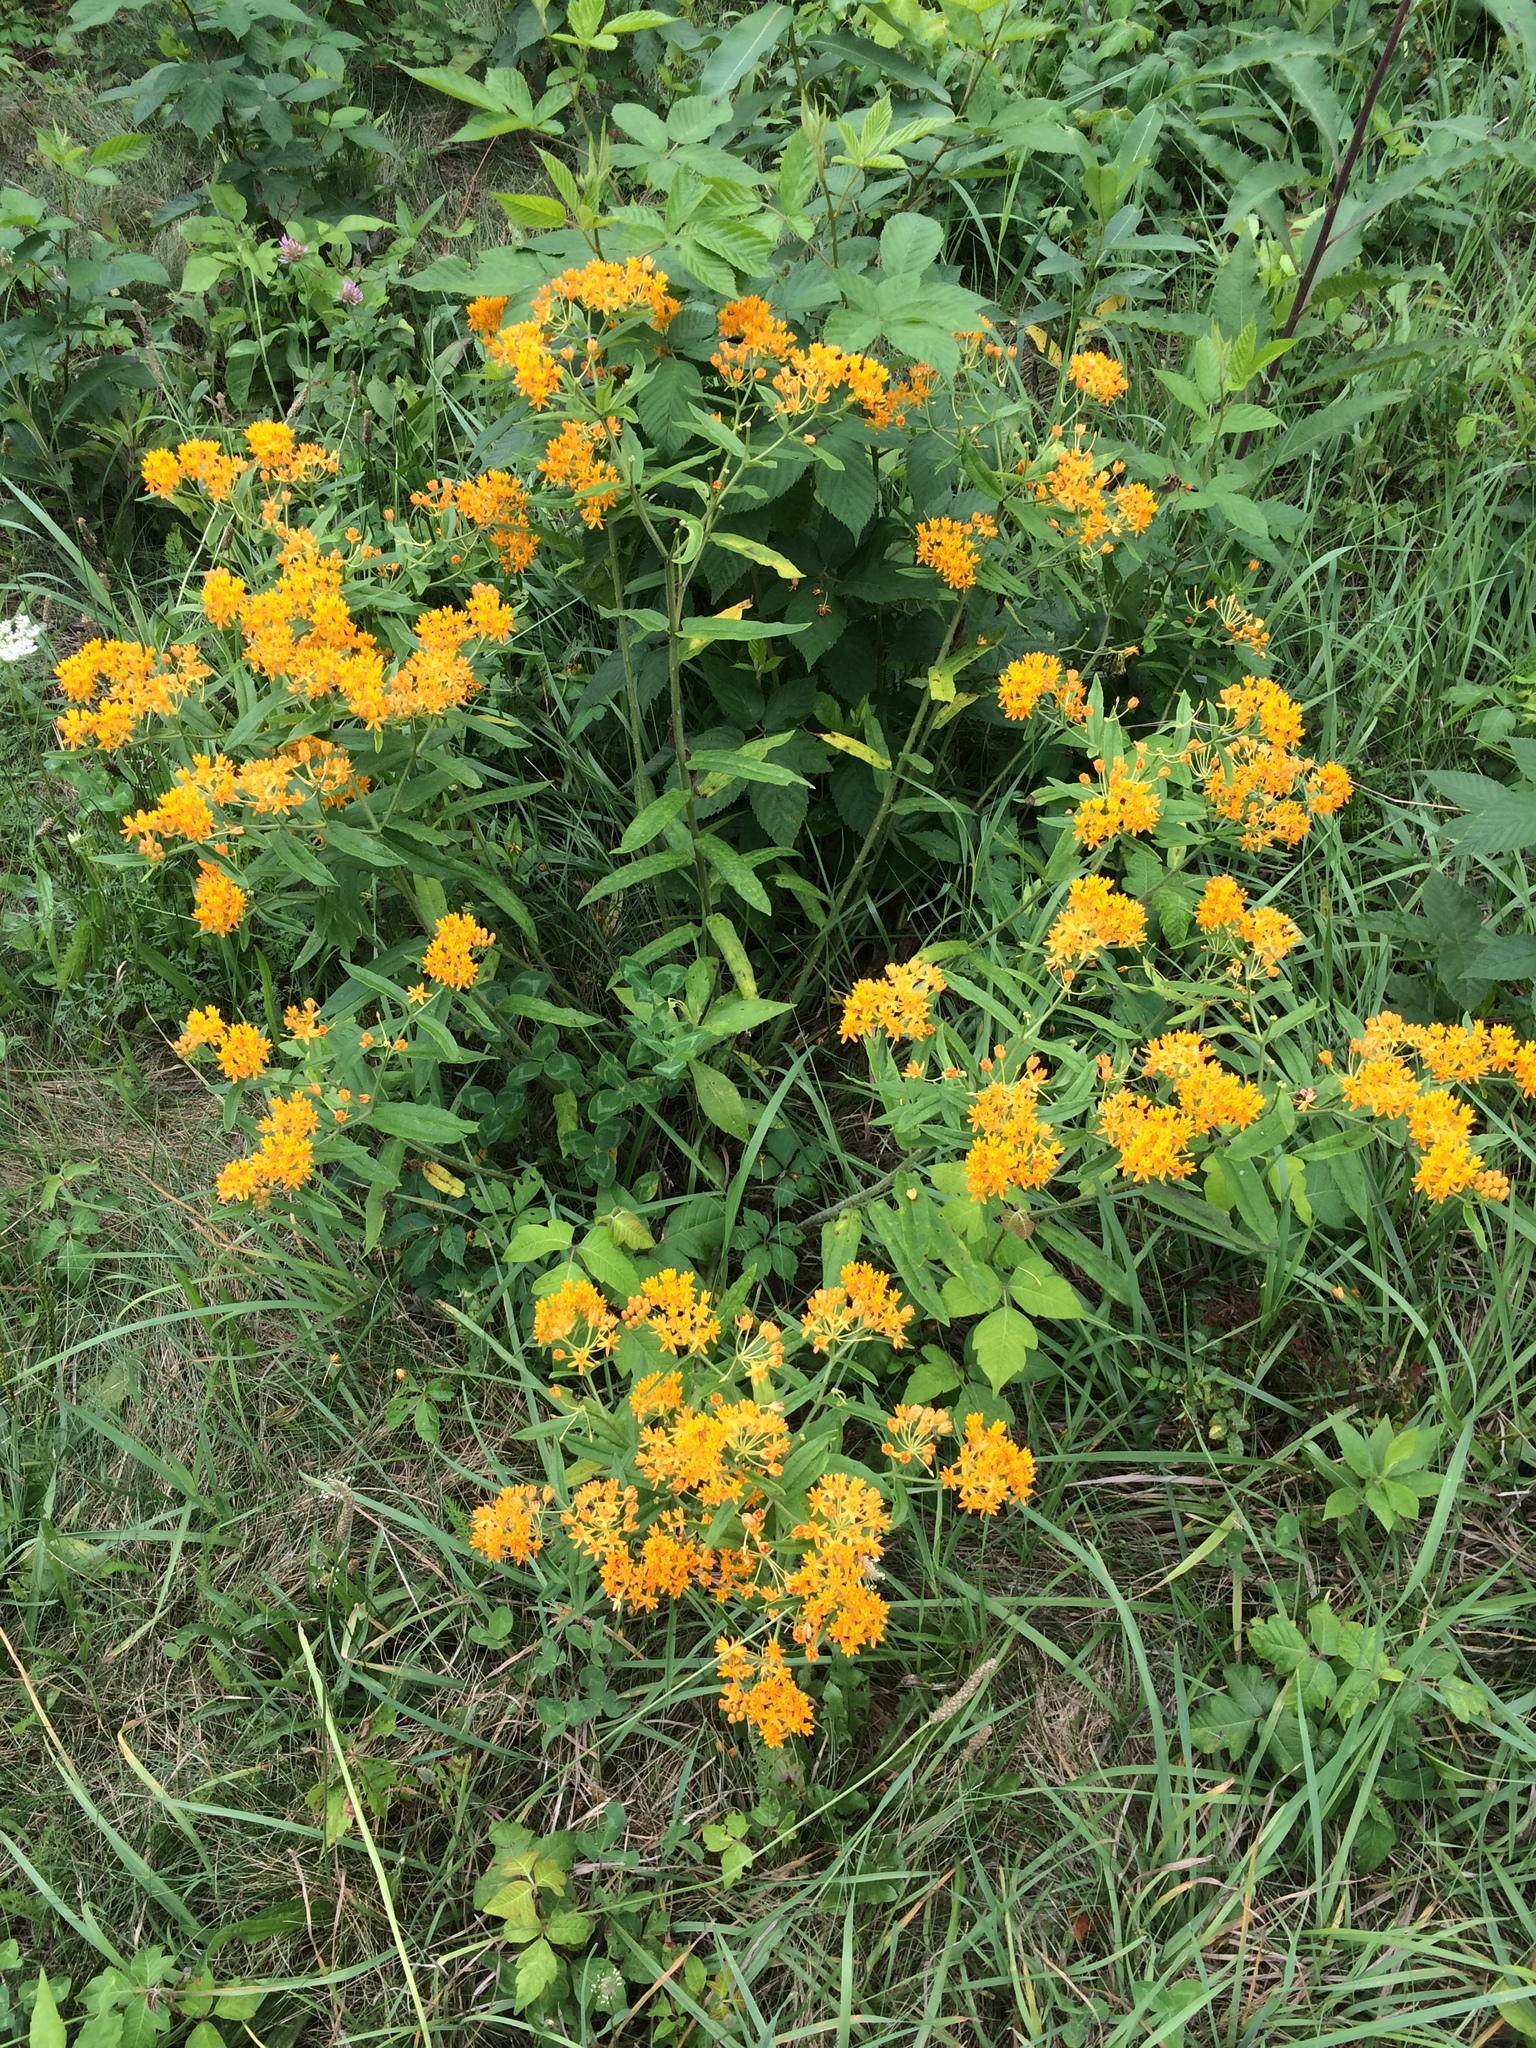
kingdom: Plantae
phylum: Tracheophyta
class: Magnoliopsida
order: Gentianales
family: Apocynaceae
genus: Asclepias
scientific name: Asclepias tuberosa
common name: Butterfly milkweed
